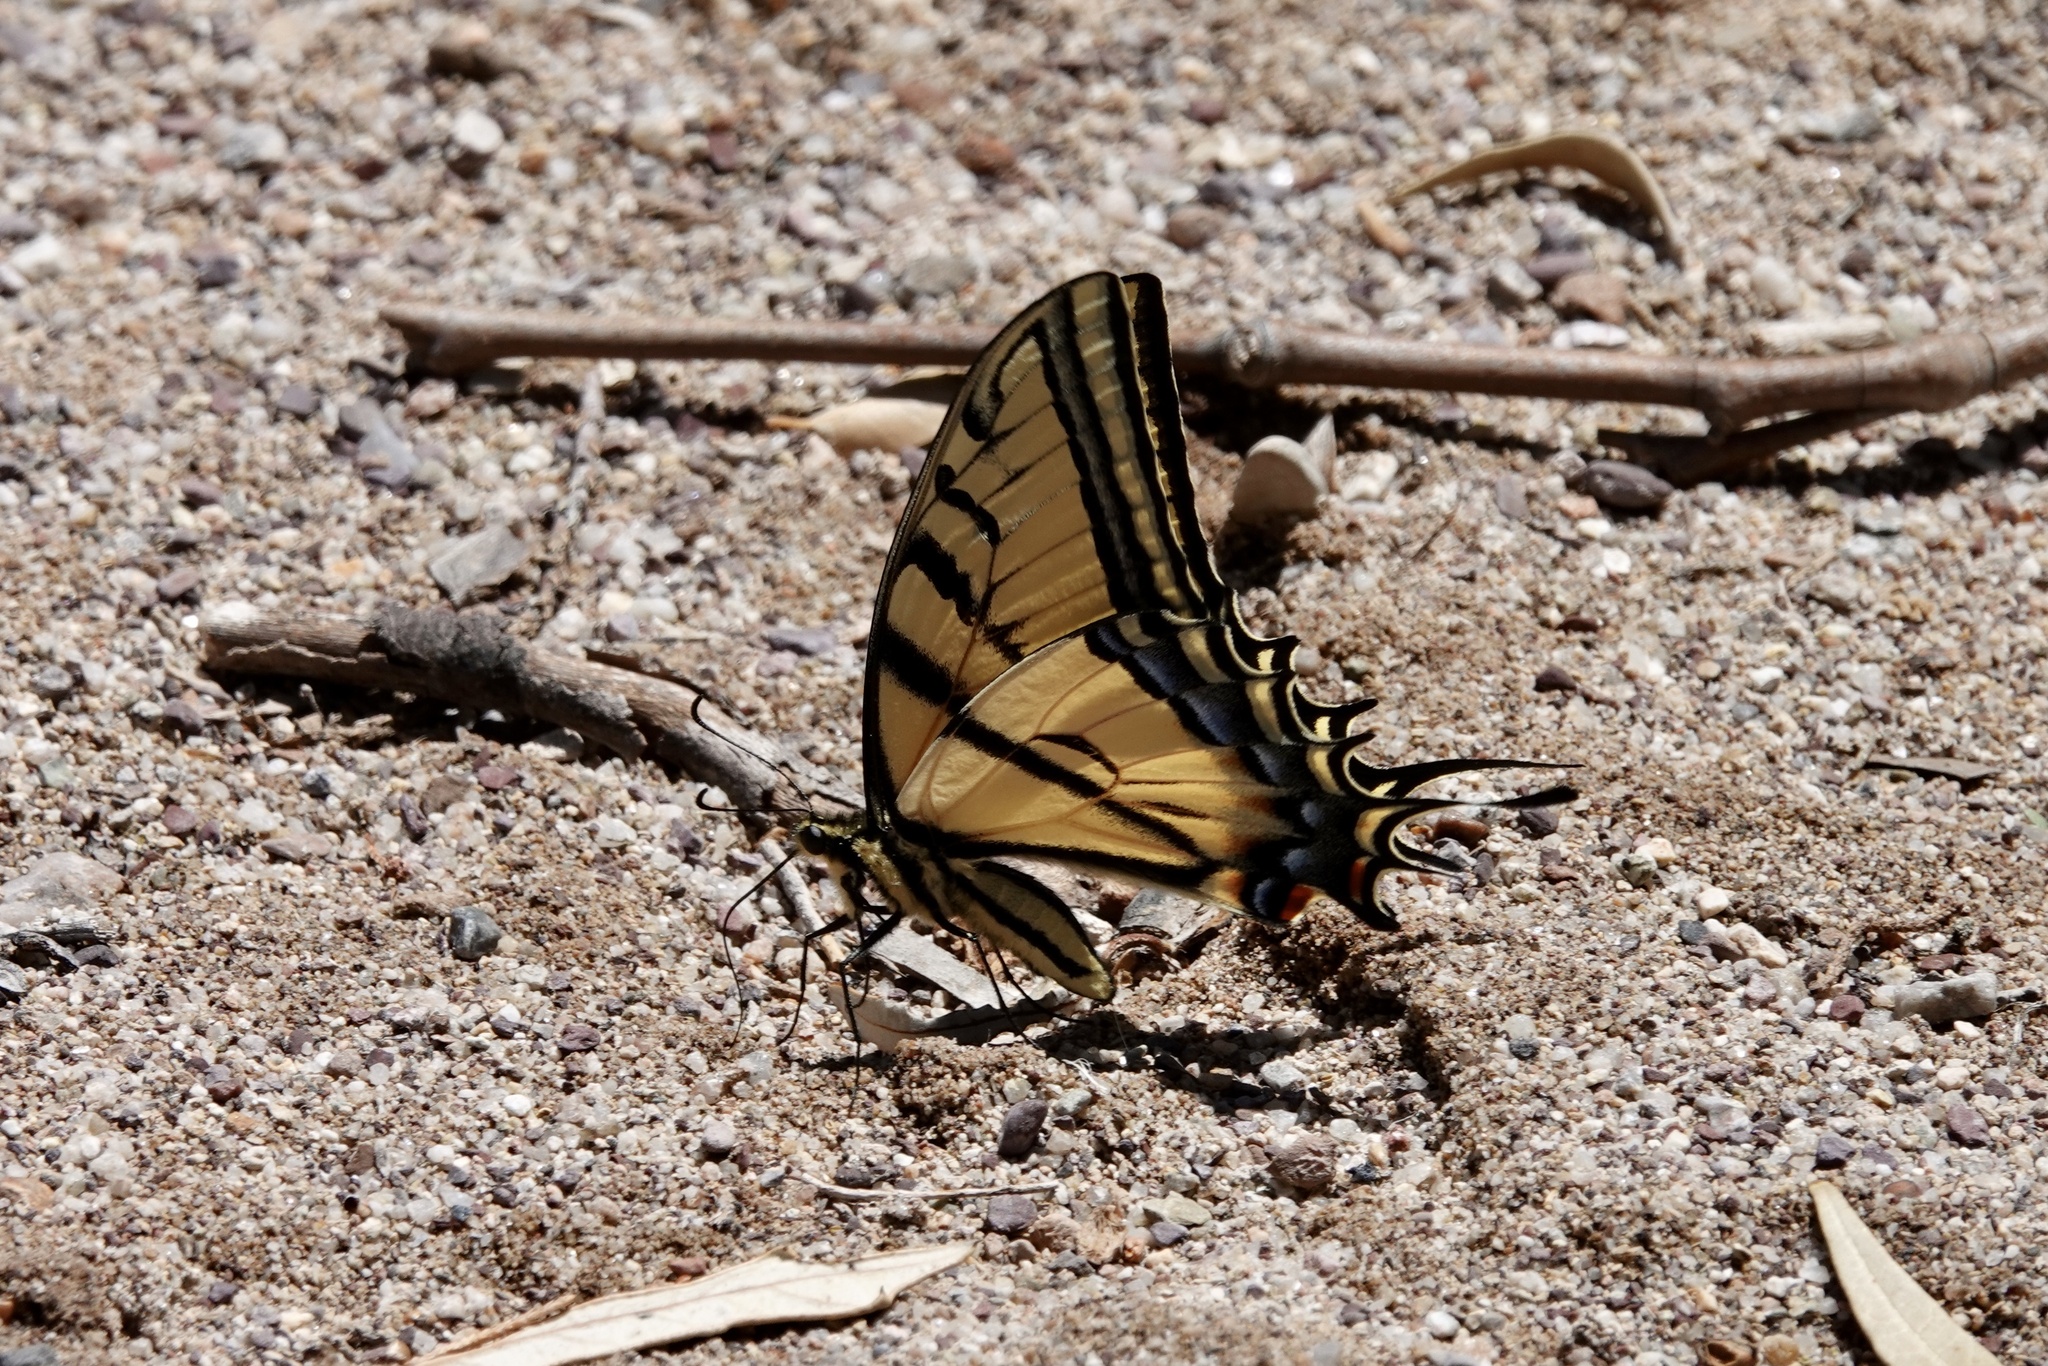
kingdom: Animalia
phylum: Arthropoda
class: Insecta
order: Lepidoptera
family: Papilionidae
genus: Papilio
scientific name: Papilio multicaudata
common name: Two-tailed tiger swallowtail
